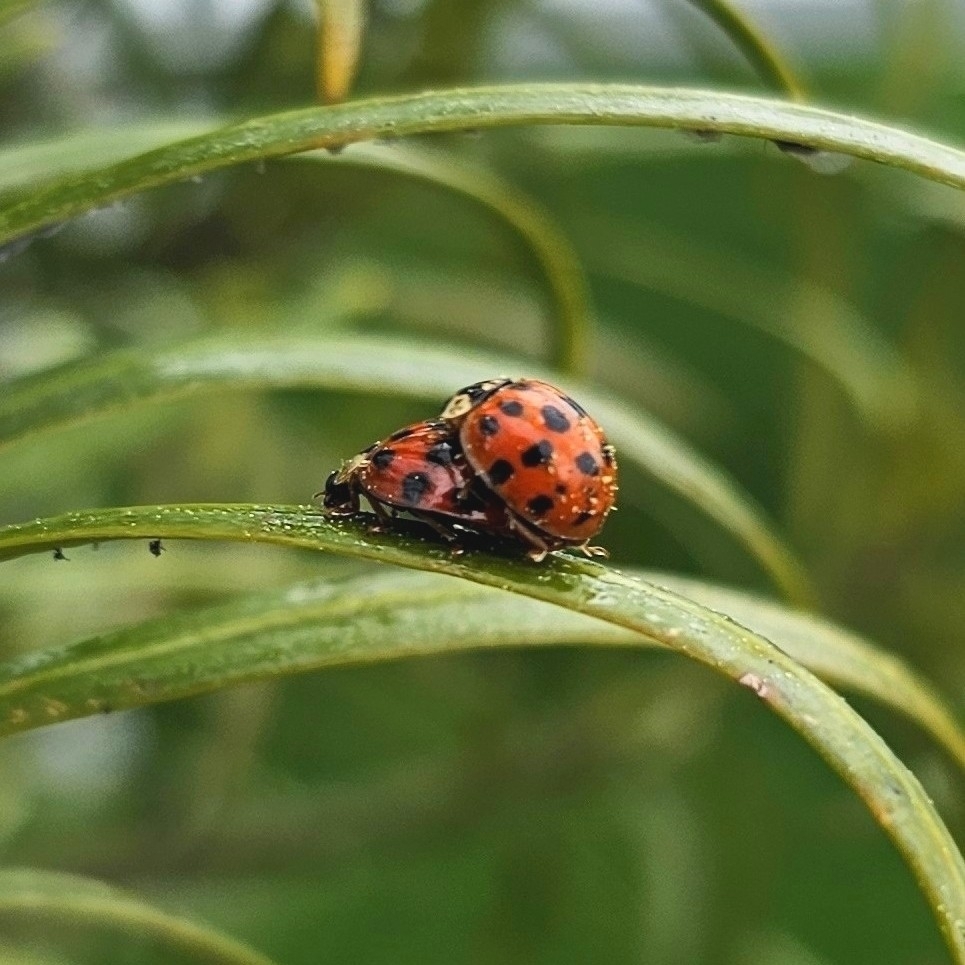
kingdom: Animalia
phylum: Arthropoda
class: Insecta
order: Coleoptera
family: Coccinellidae
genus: Harmonia
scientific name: Harmonia axyridis
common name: Harlequin ladybird
